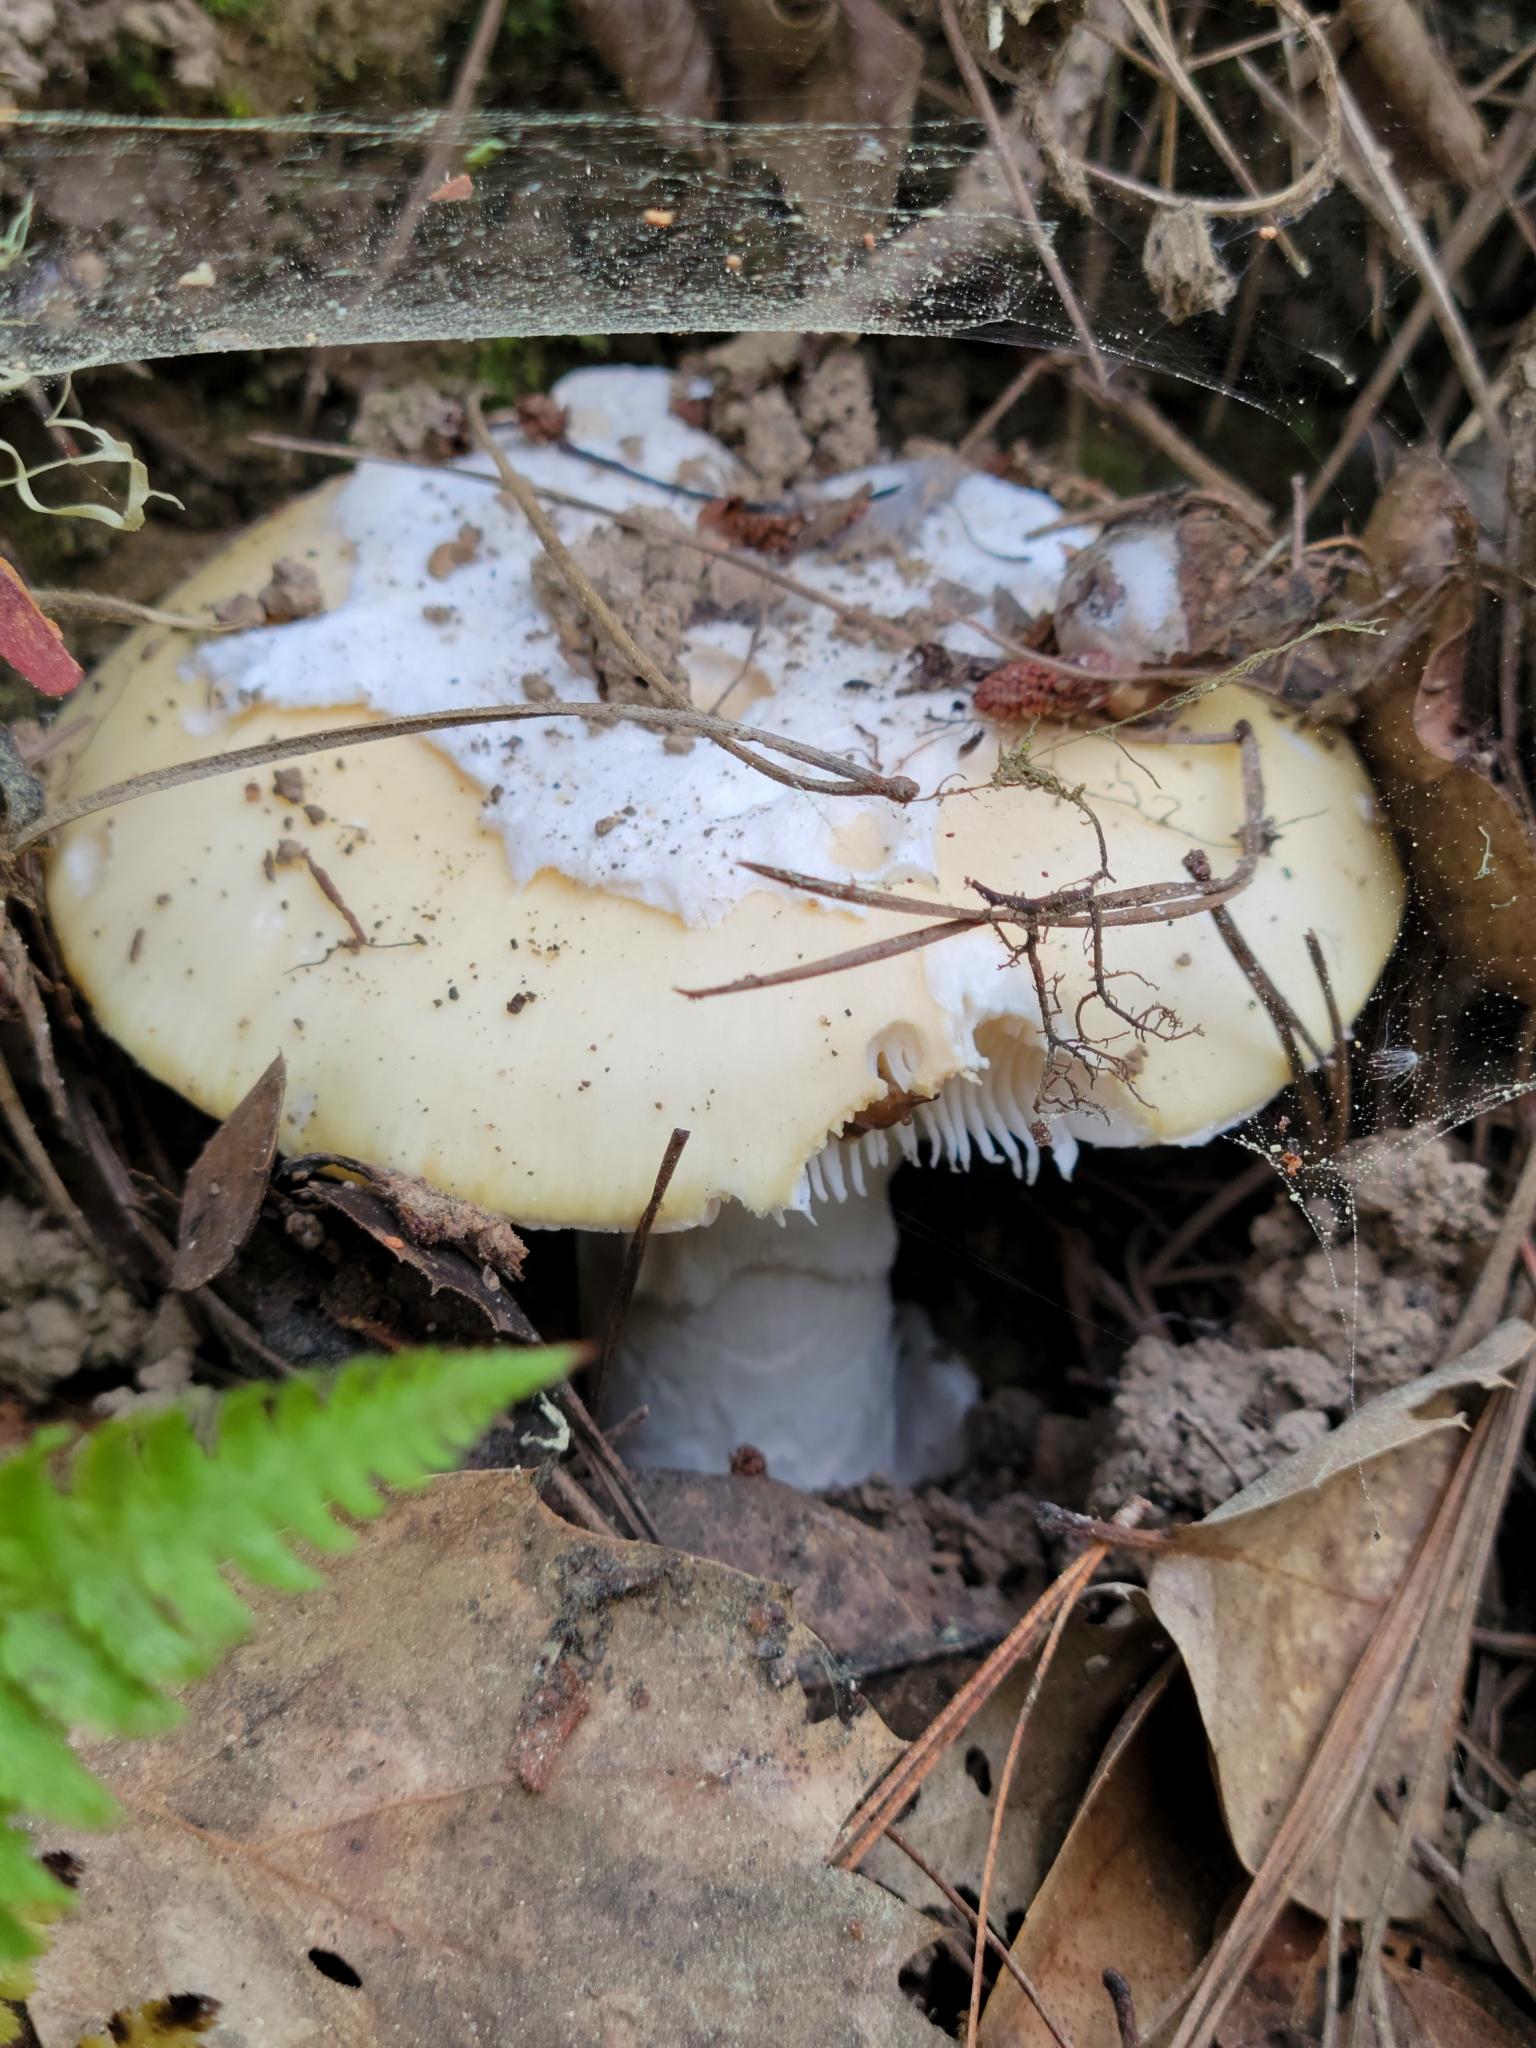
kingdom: Fungi
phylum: Basidiomycota
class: Agaricomycetes
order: Agaricales
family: Amanitaceae
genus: Amanita
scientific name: Amanita vernicoccora
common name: Spring coccora
